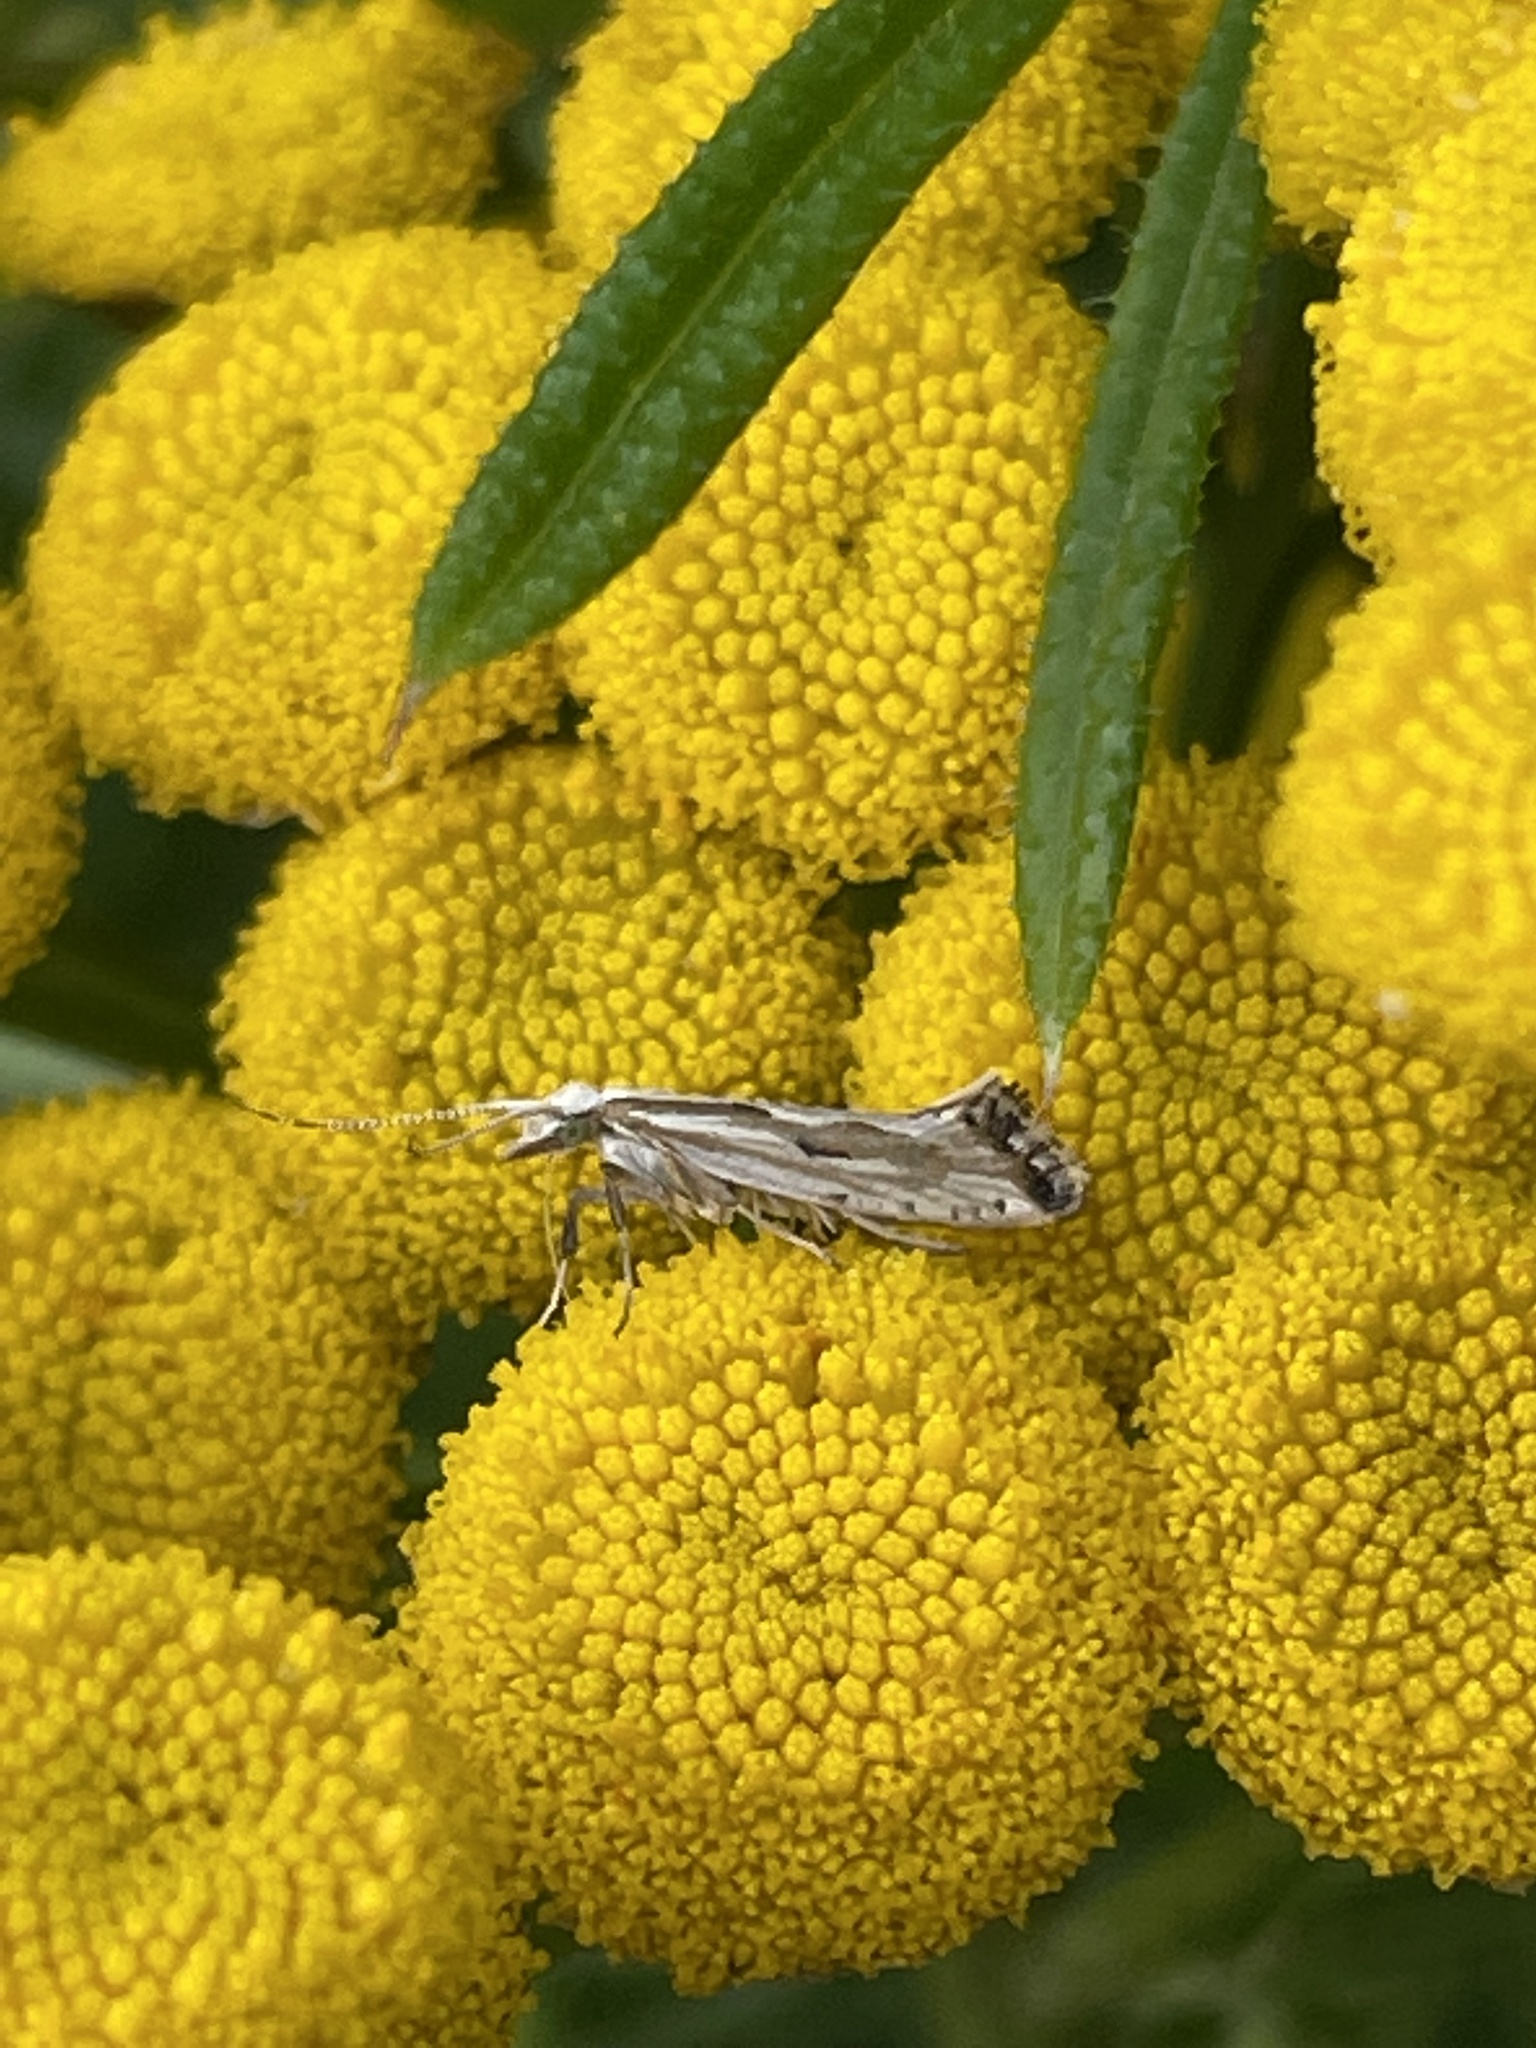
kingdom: Animalia
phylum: Arthropoda
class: Insecta
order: Lepidoptera
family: Plutellidae
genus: Plutella
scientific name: Plutella porrectella
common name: Dame's rocket moth
